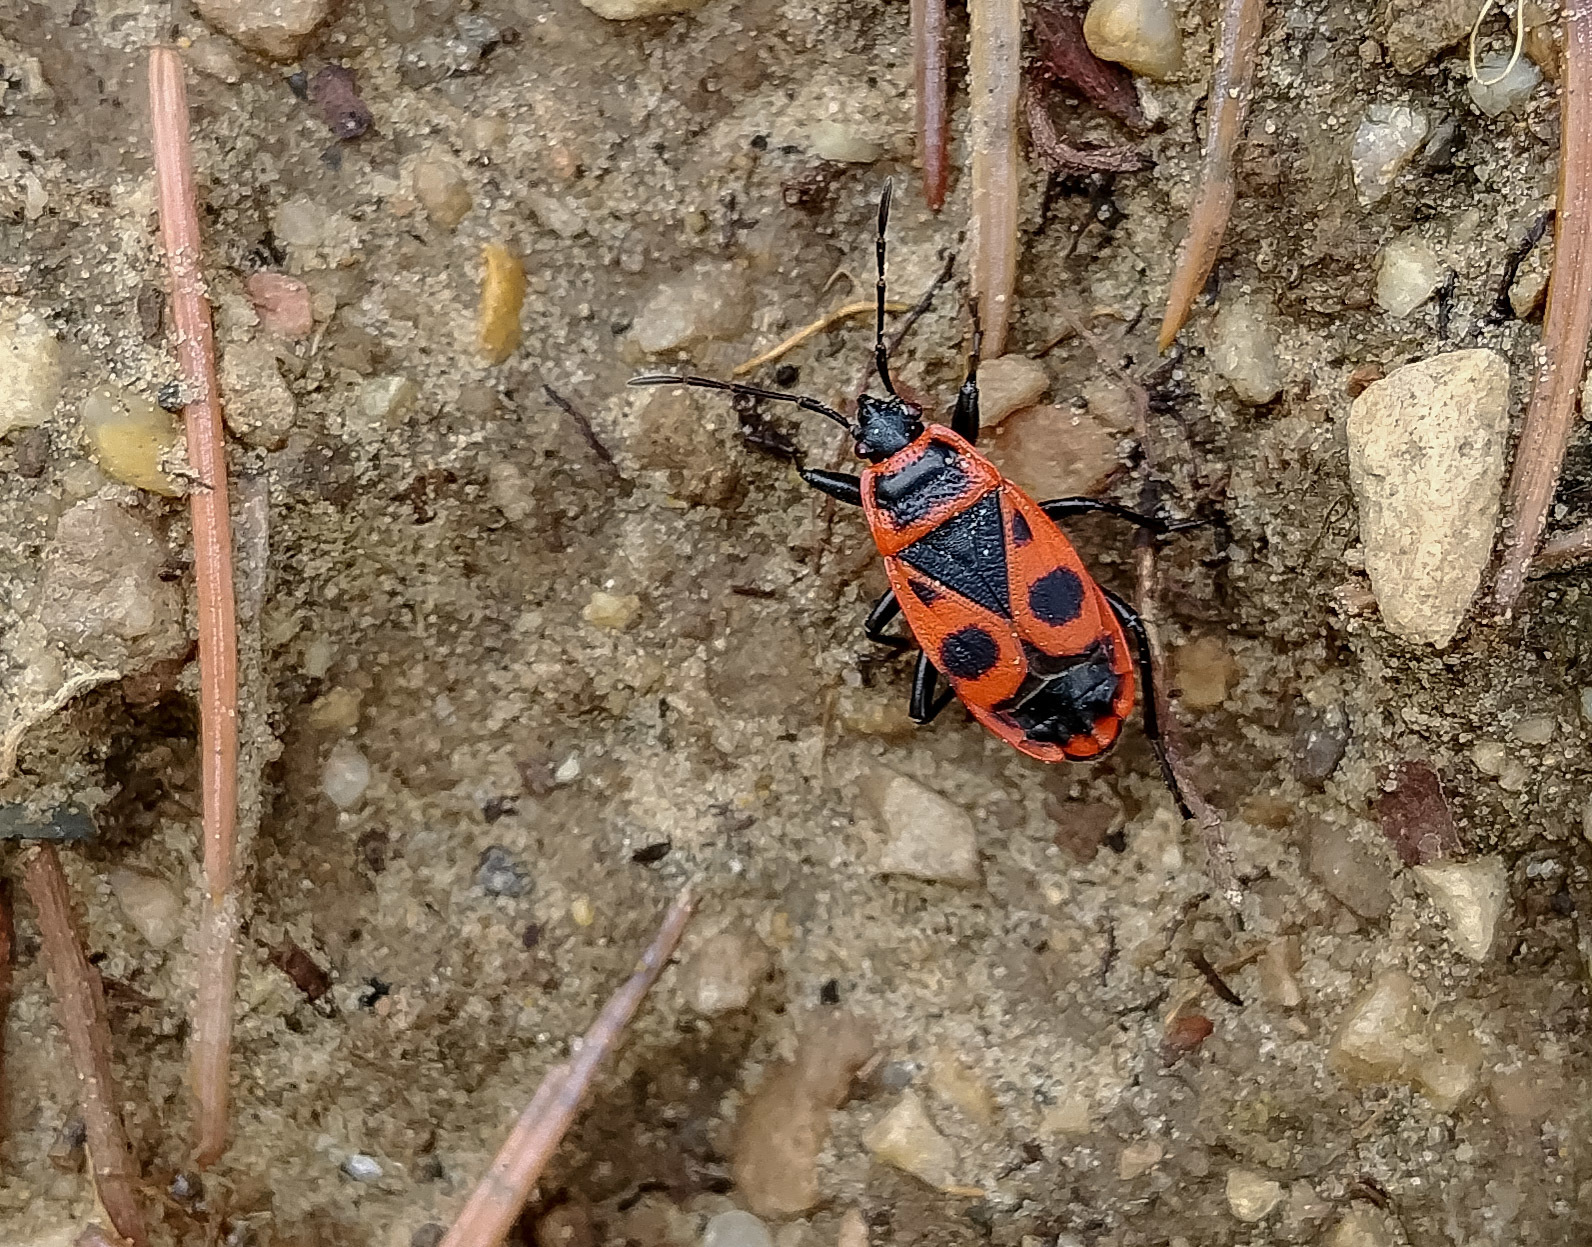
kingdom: Animalia
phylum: Arthropoda
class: Insecta
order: Hemiptera
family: Pyrrhocoridae
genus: Pyrrhocoris
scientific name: Pyrrhocoris apterus
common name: Firebug
